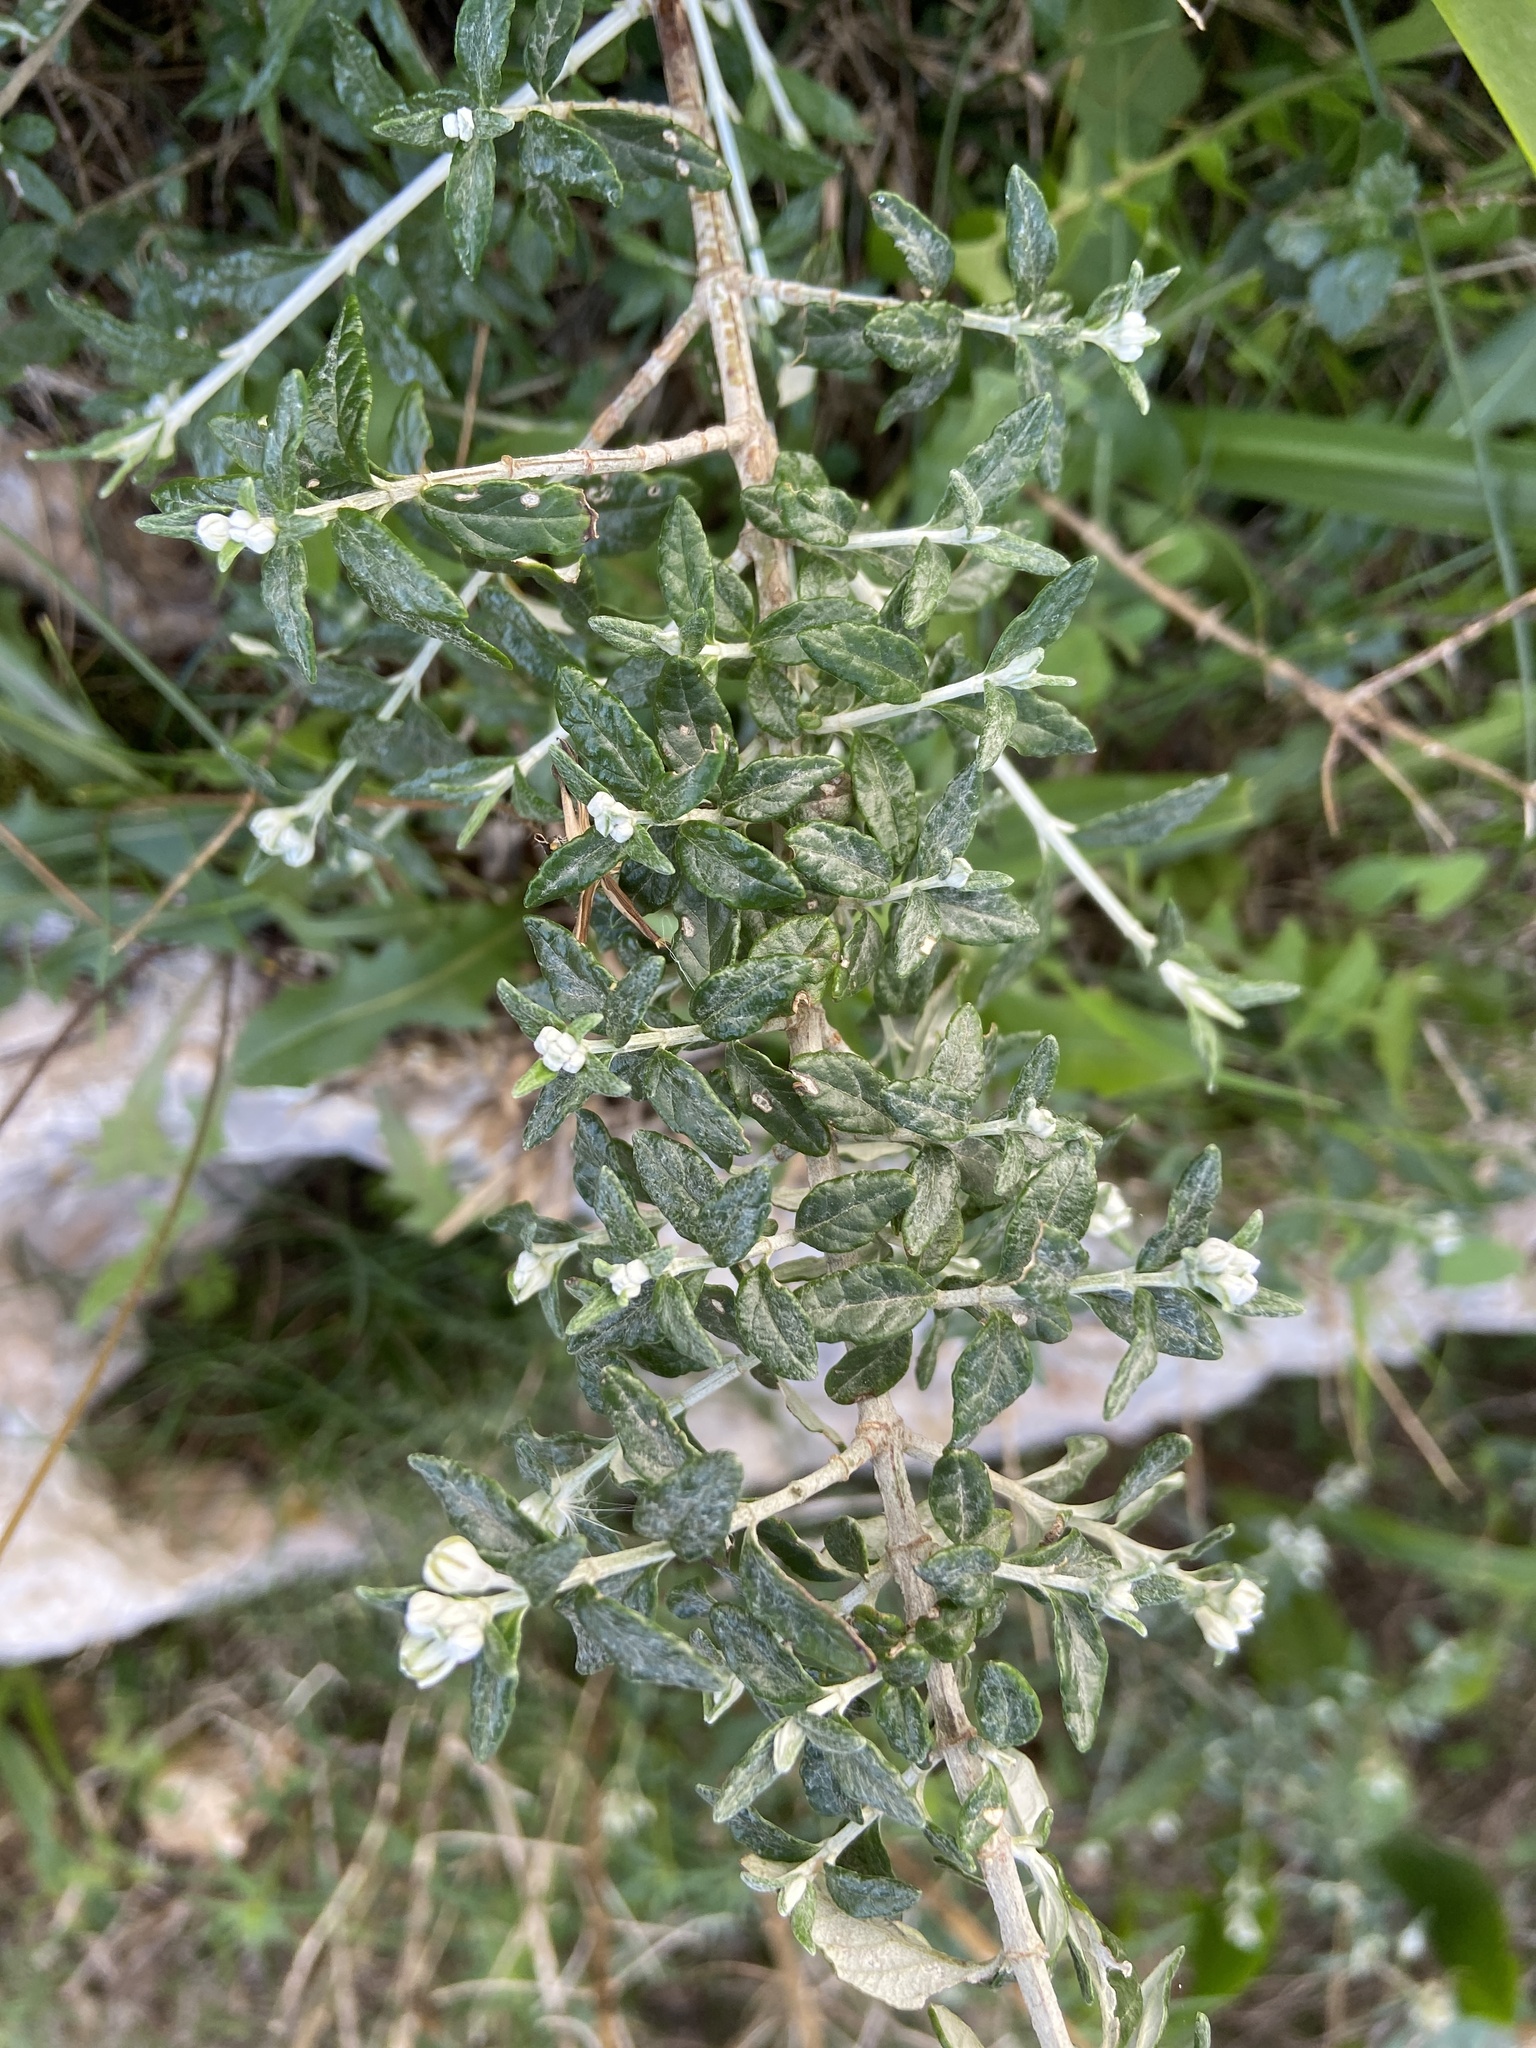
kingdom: Plantae
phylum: Tracheophyta
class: Magnoliopsida
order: Lamiales
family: Lamiaceae
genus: Teucrium
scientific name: Teucrium fruticans
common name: Shrubby germander
